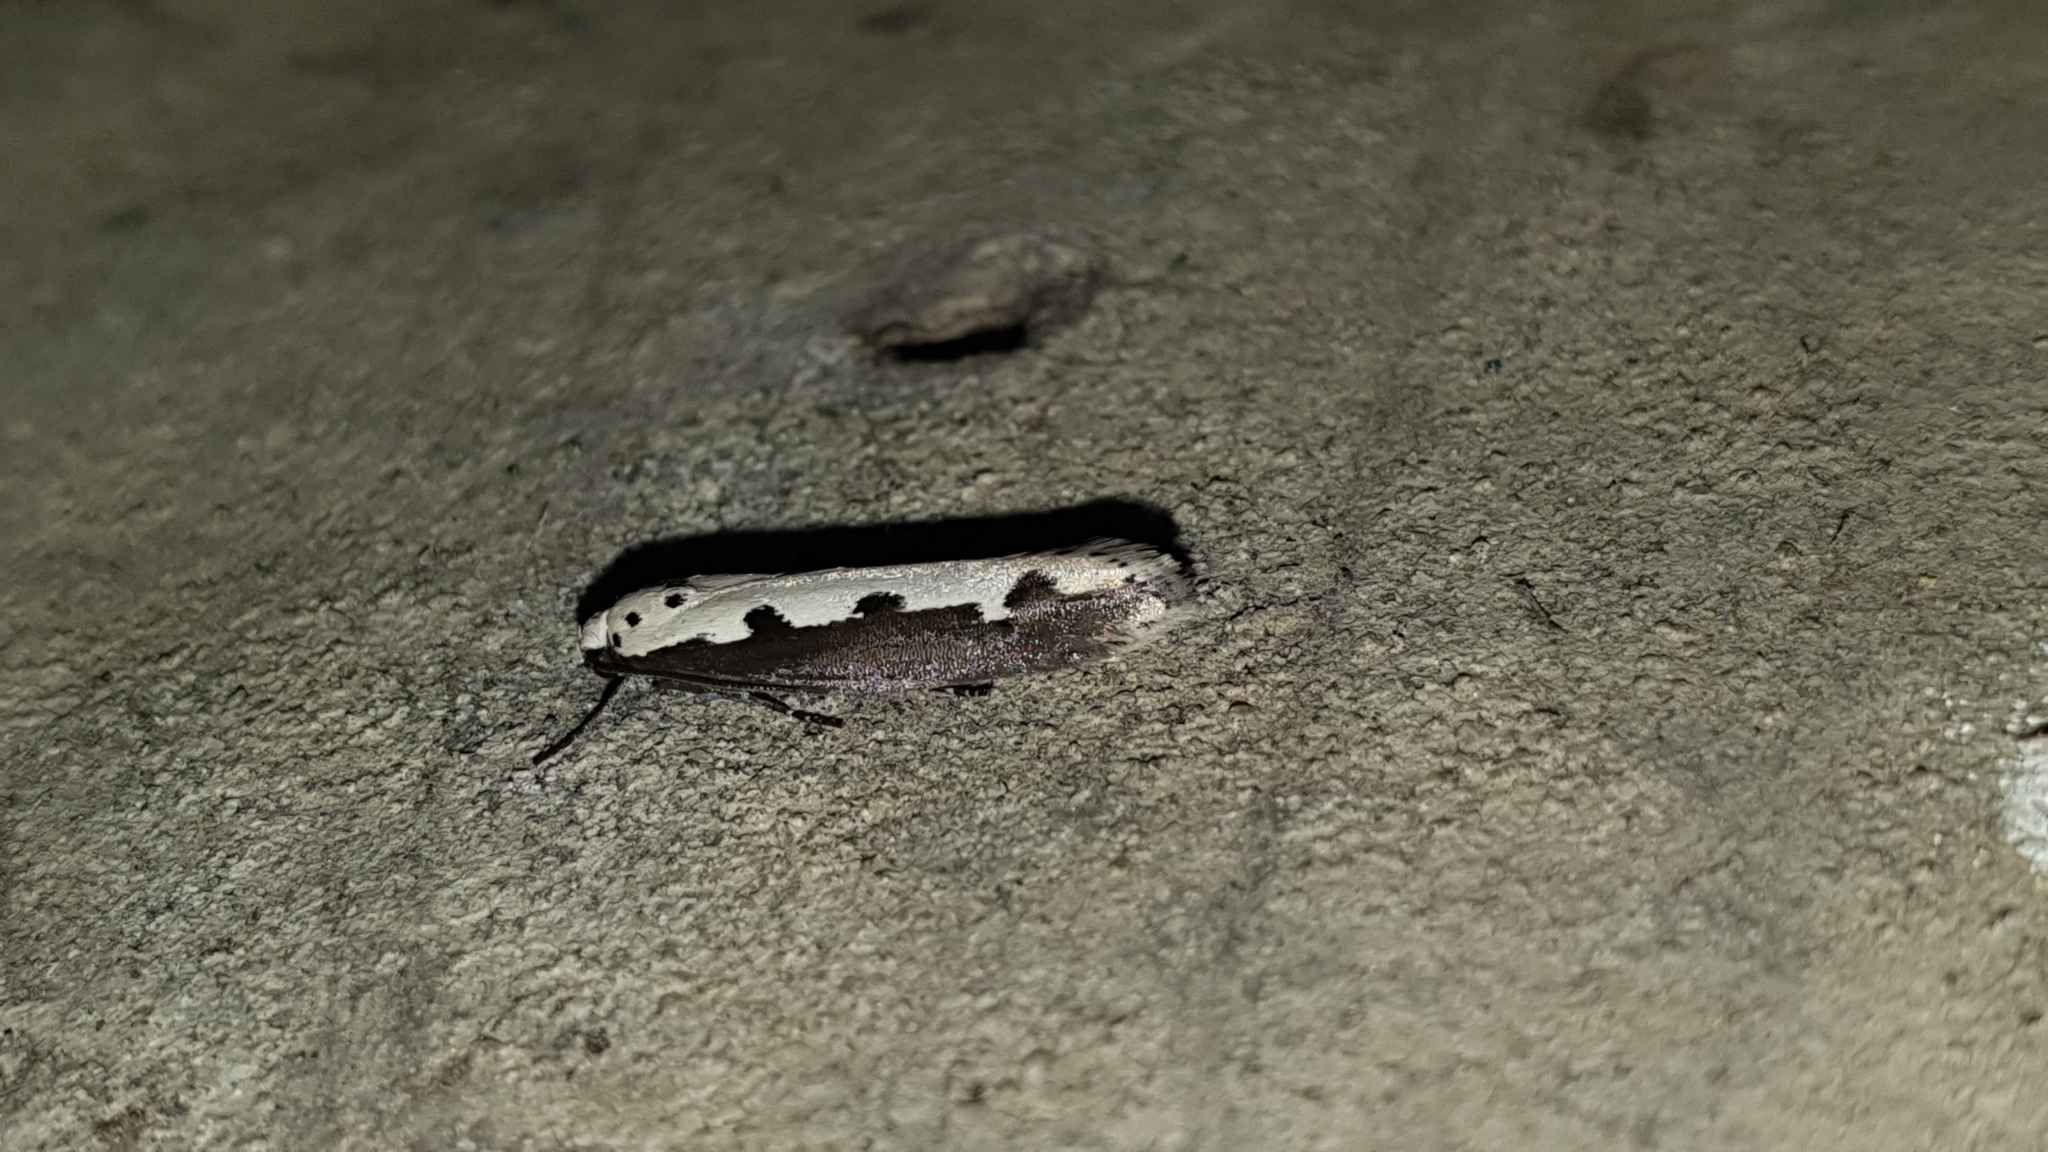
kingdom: Animalia
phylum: Arthropoda
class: Insecta
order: Lepidoptera
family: Ethmiidae
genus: Ethmia
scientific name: Ethmia bipunctella
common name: Bordered ermel
